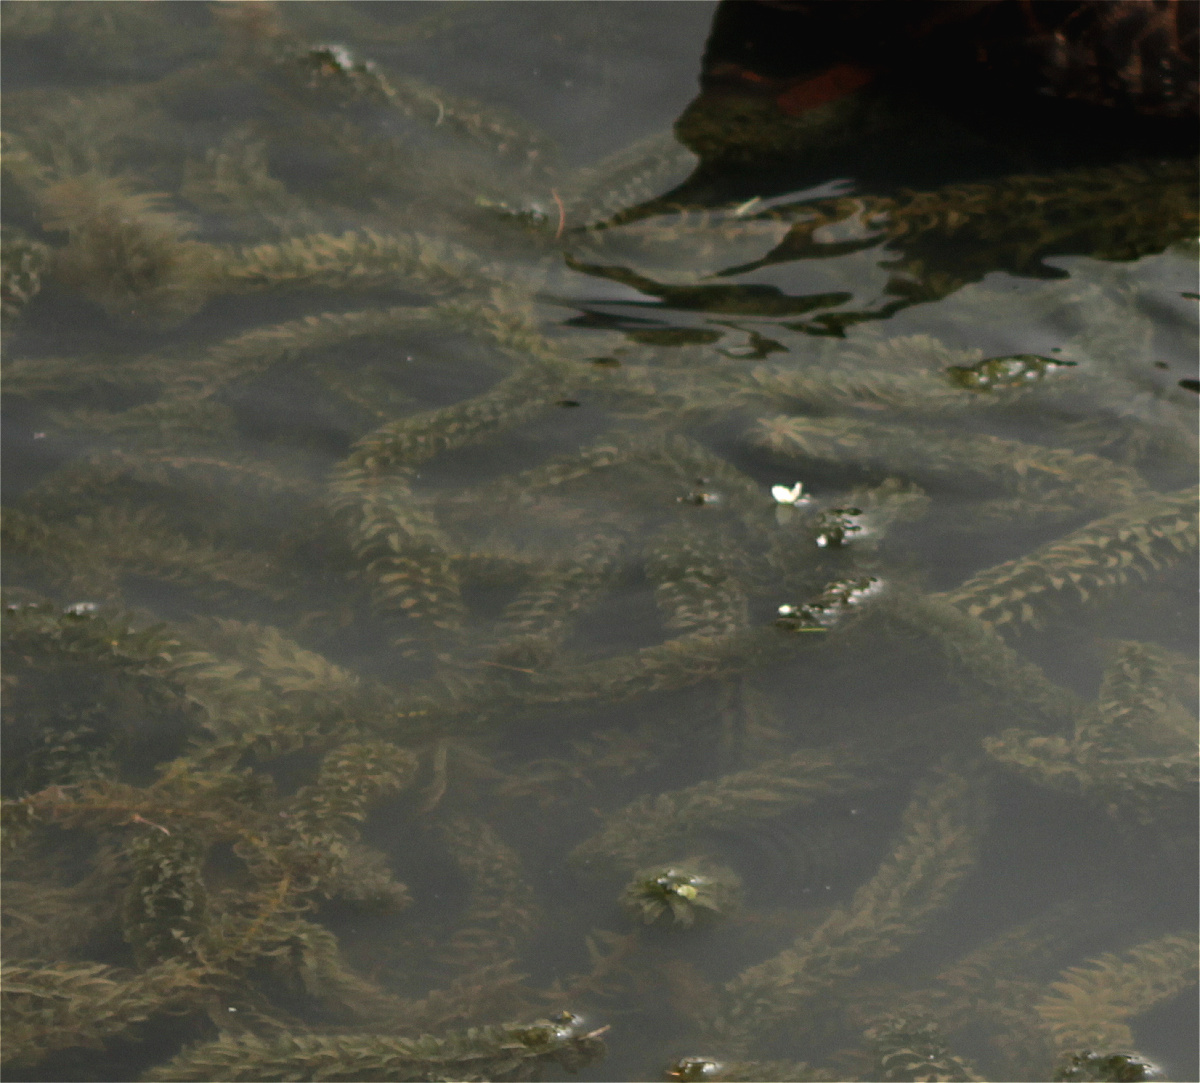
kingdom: Plantae
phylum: Tracheophyta
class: Liliopsida
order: Alismatales
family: Hydrocharitaceae
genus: Elodea
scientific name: Elodea densa
